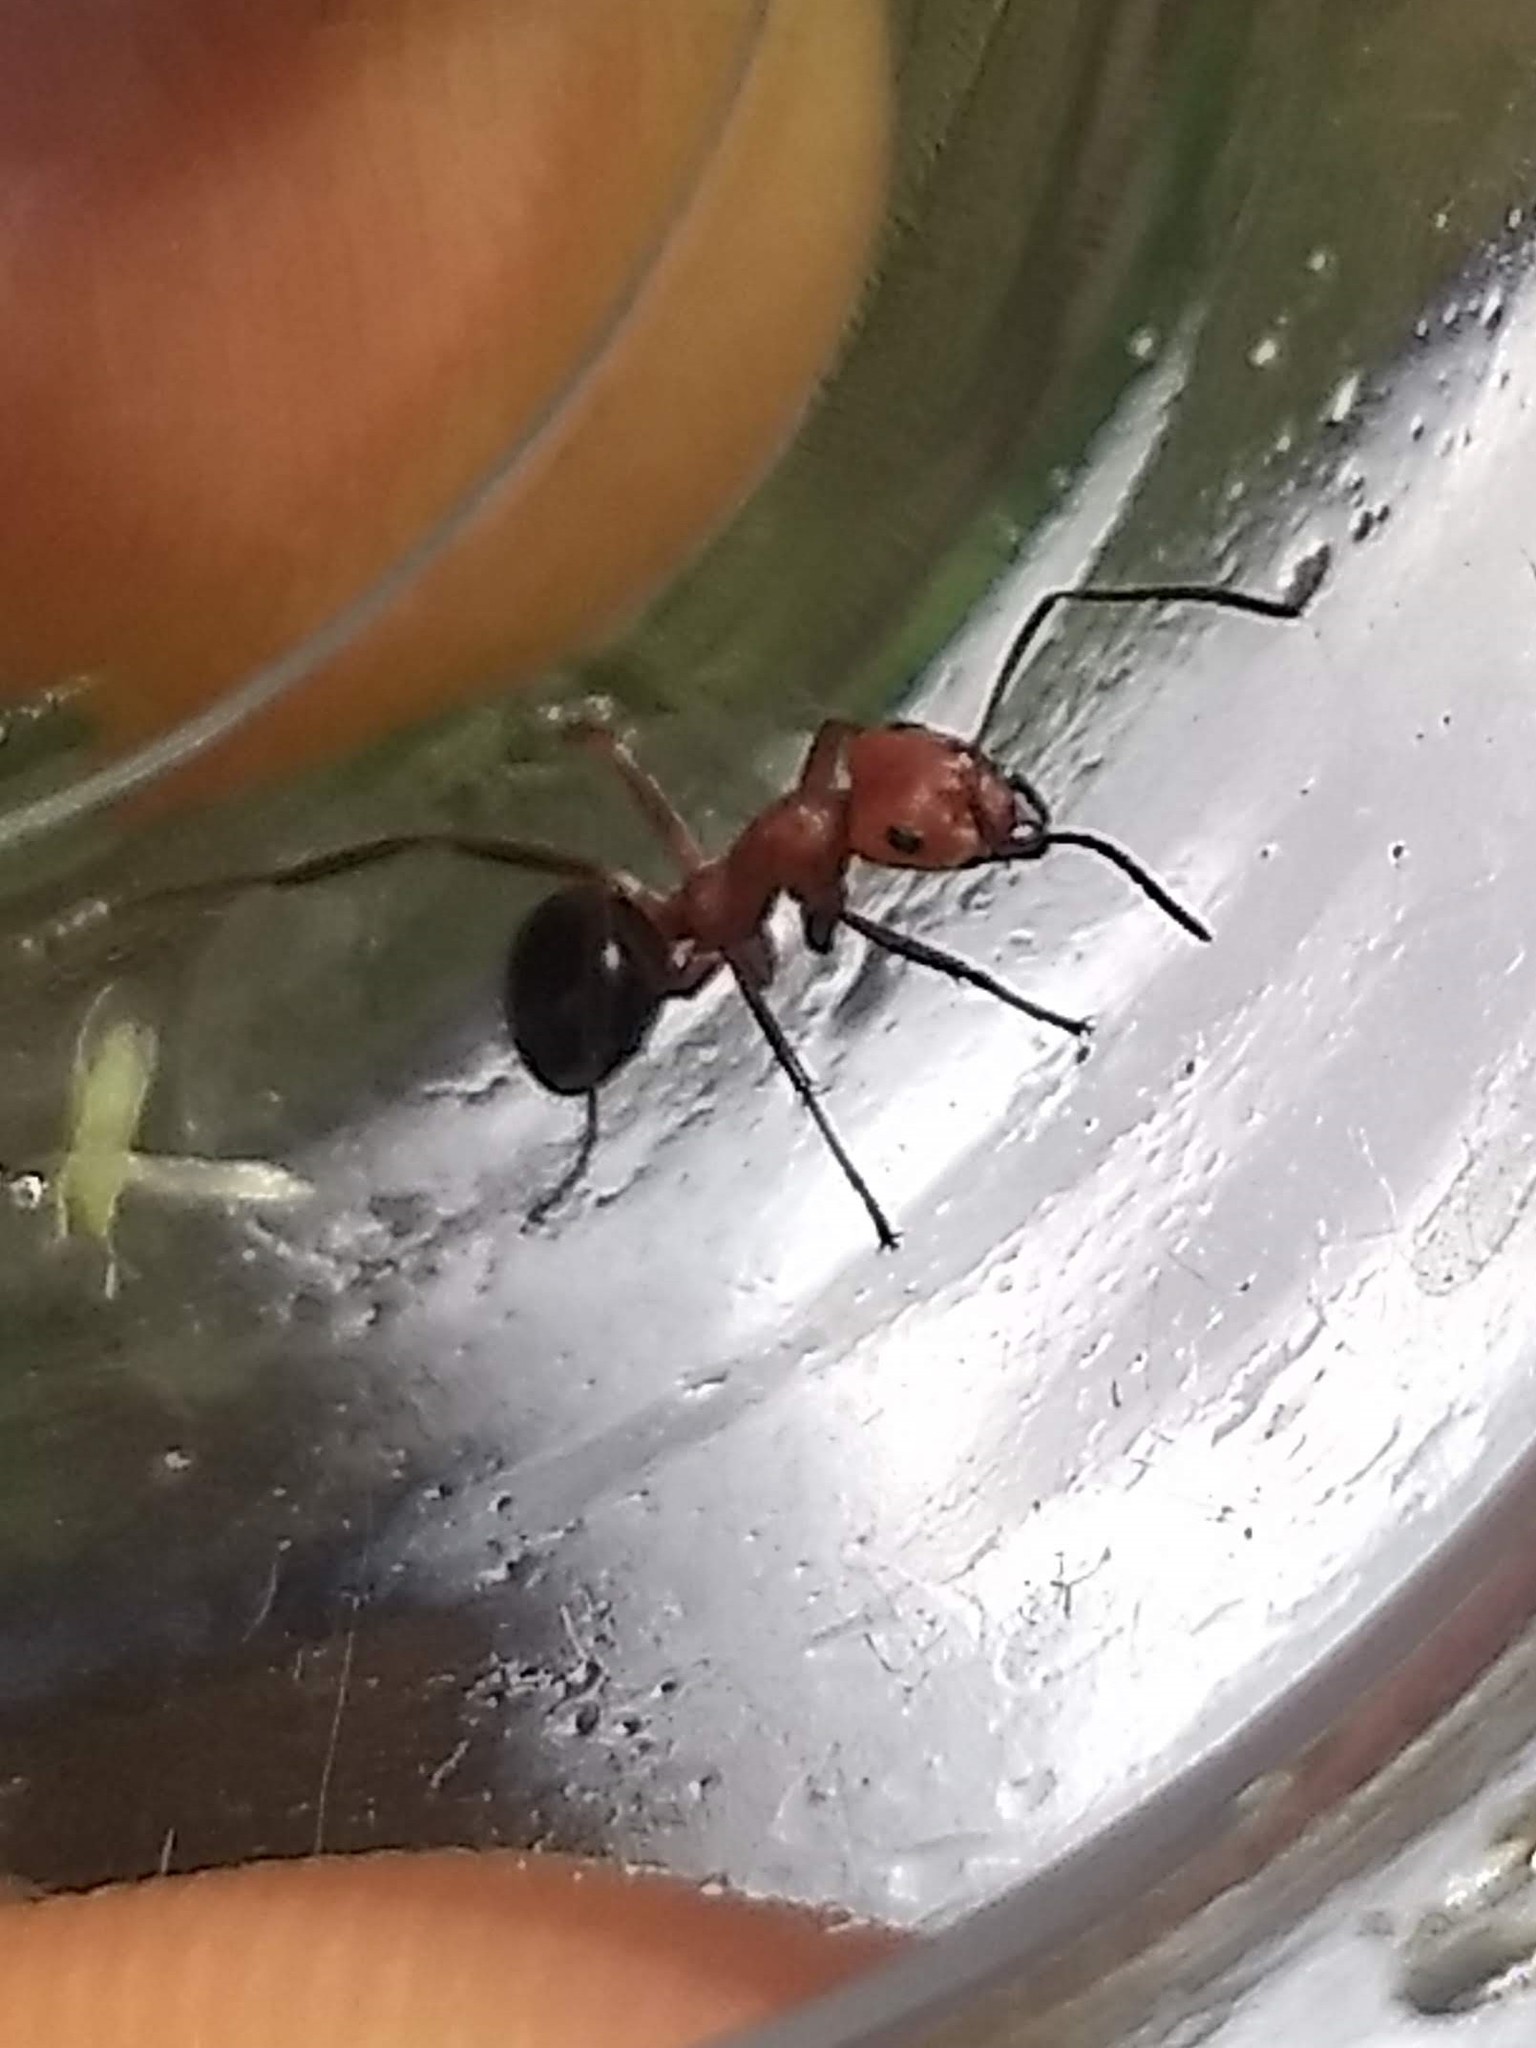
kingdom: Animalia
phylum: Arthropoda
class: Insecta
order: Hymenoptera
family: Formicidae
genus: Formica
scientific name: Formica exsectoides
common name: Allegheny mound ant
